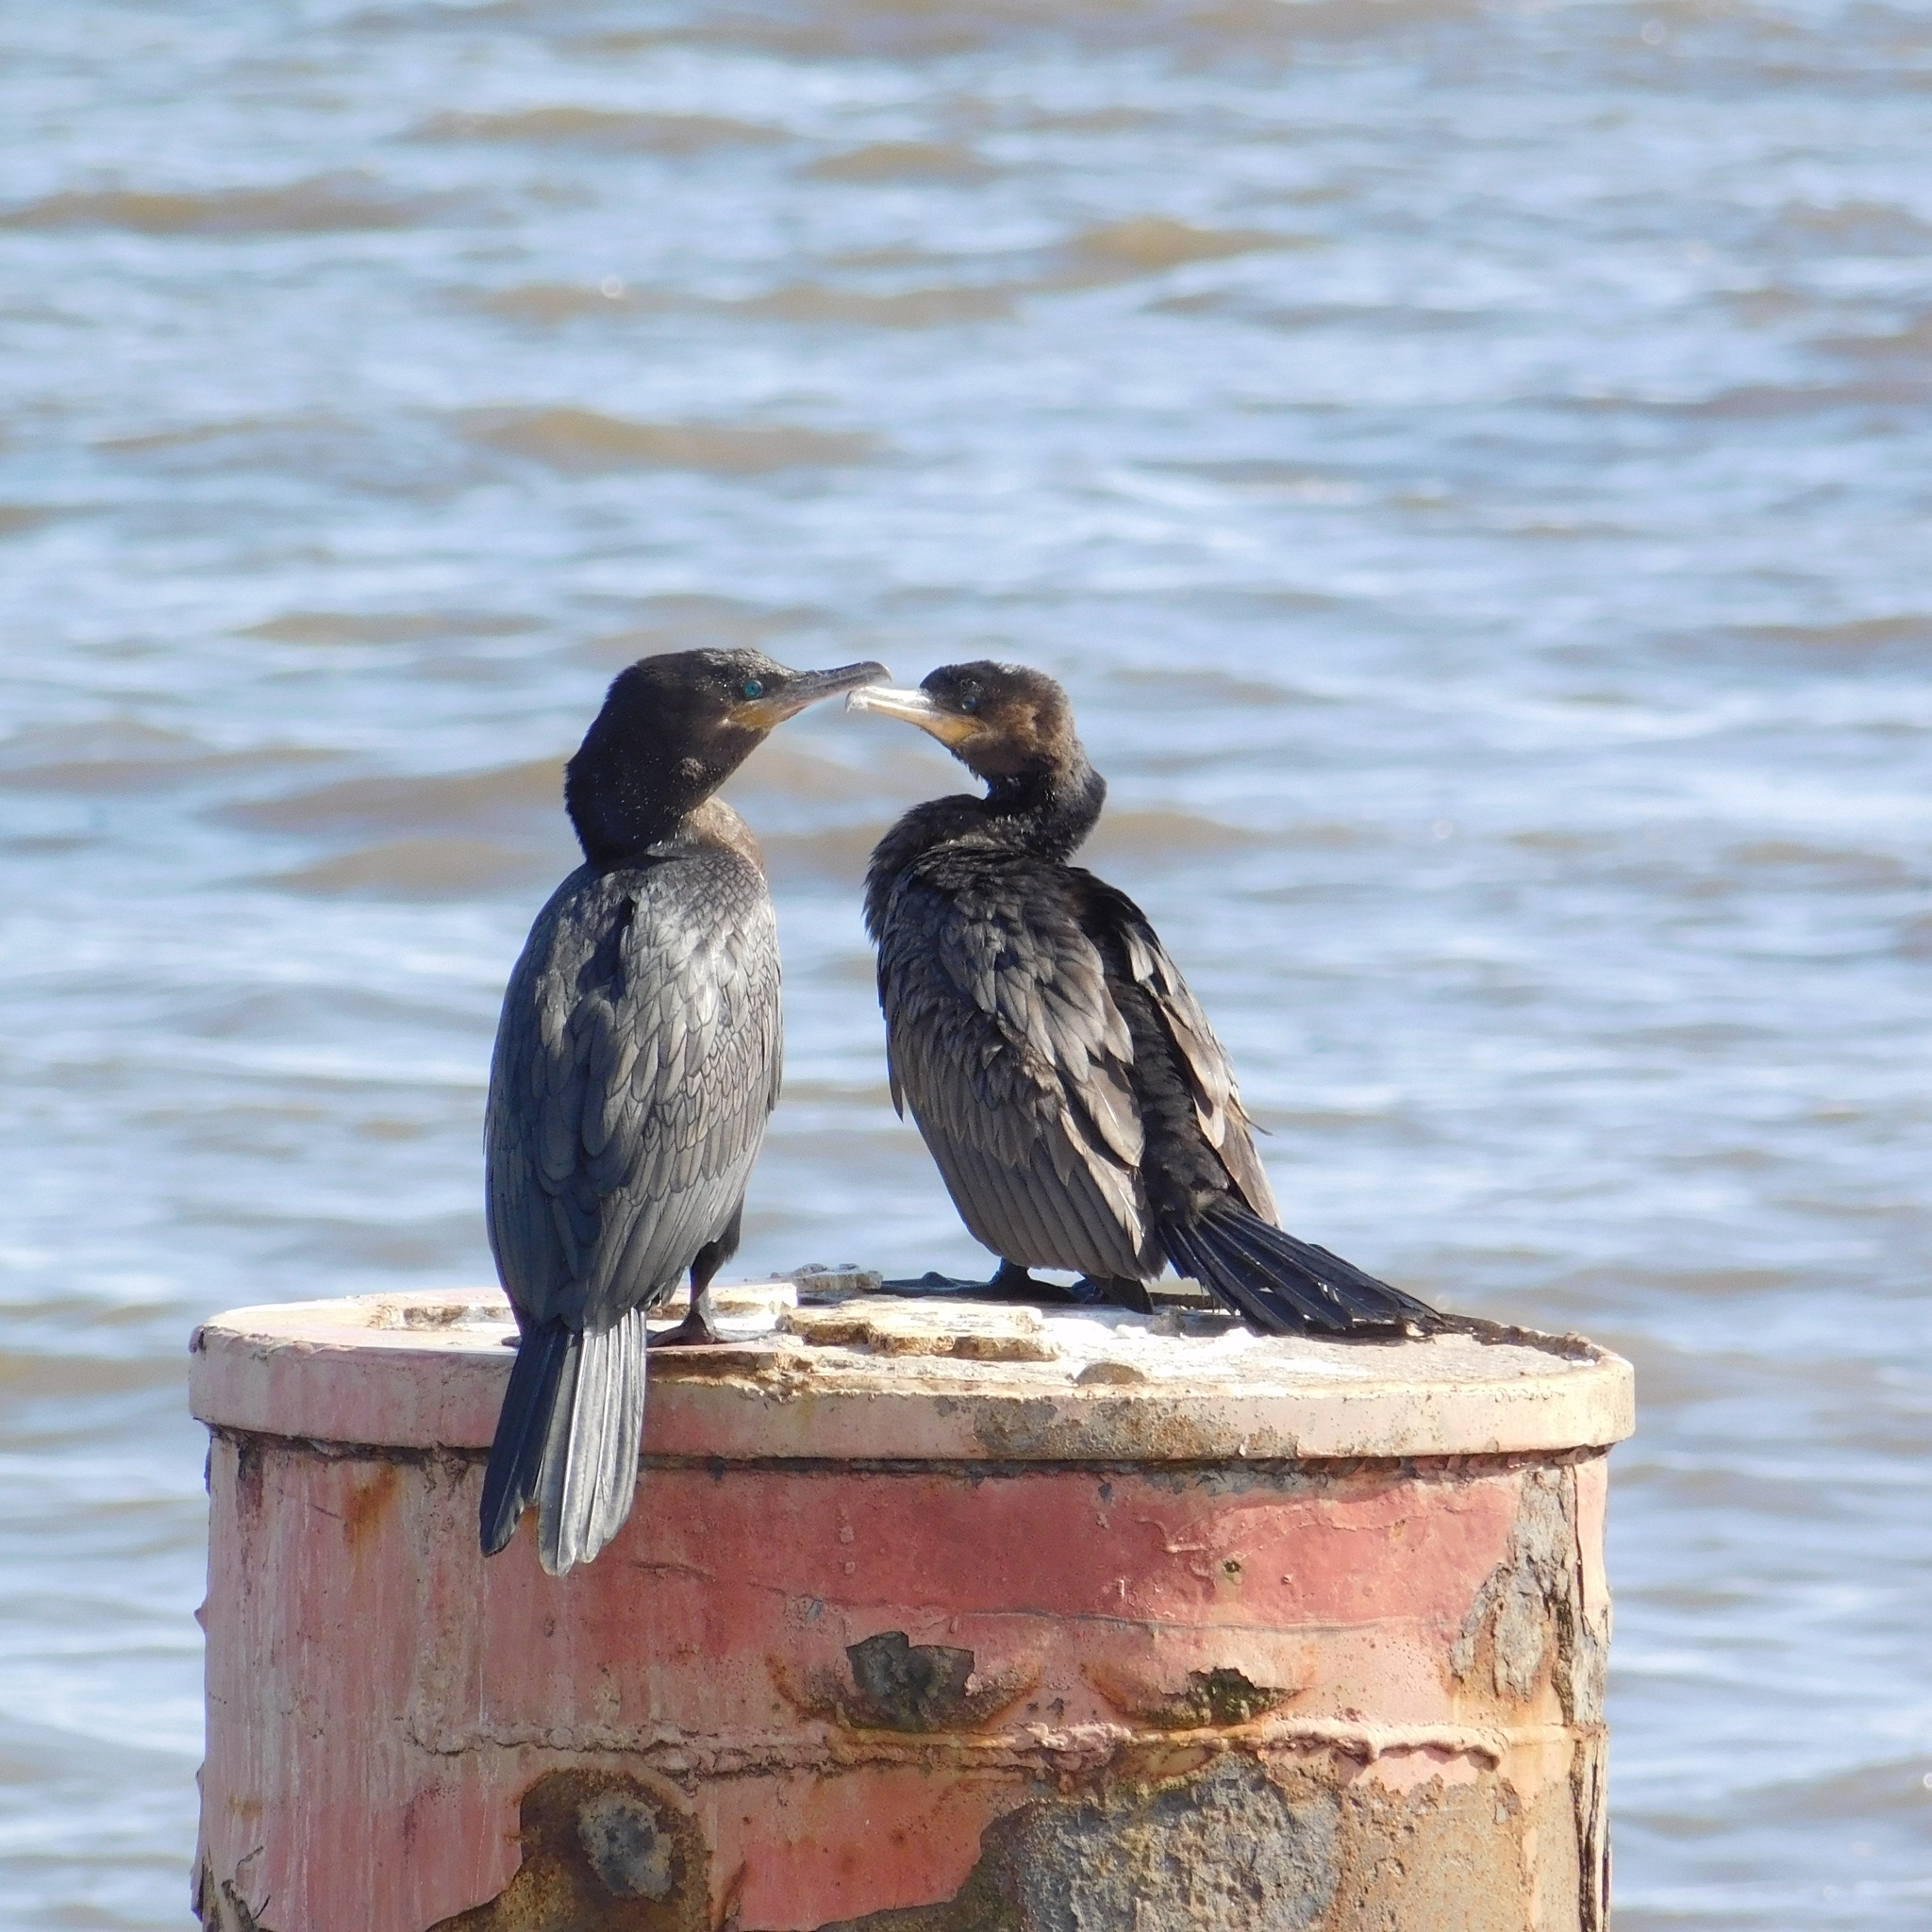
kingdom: Animalia
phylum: Chordata
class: Aves
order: Suliformes
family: Phalacrocoracidae
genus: Phalacrocorax
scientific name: Phalacrocorax brasilianus
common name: Neotropic cormorant
